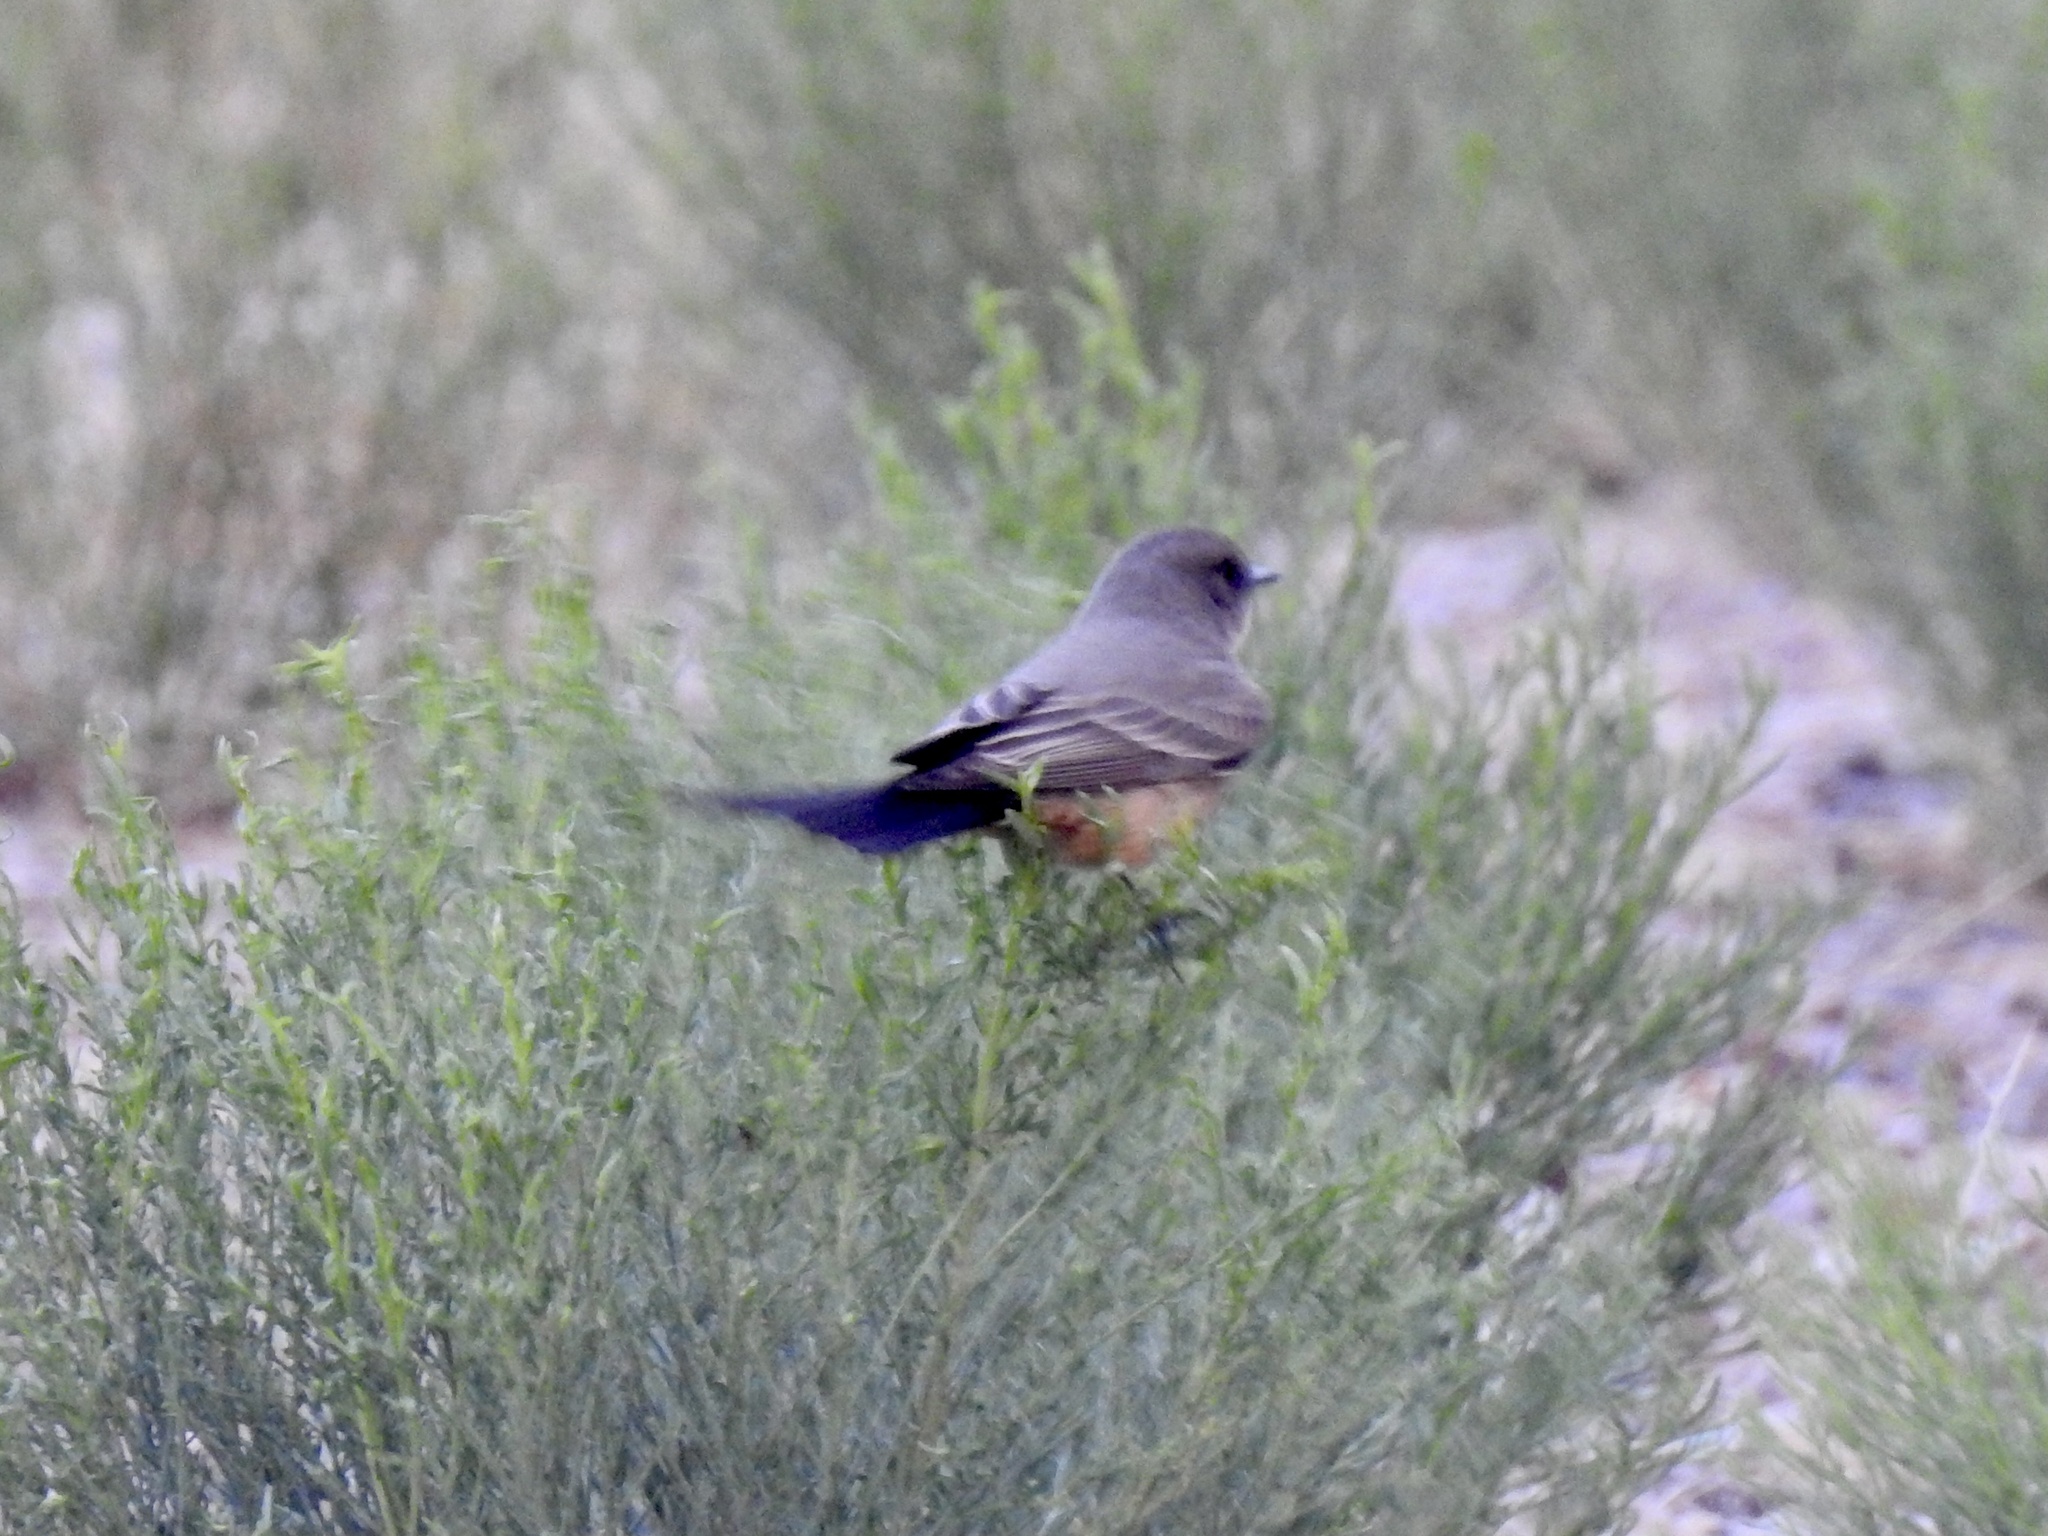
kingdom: Animalia
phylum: Chordata
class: Aves
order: Passeriformes
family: Tyrannidae
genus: Sayornis
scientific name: Sayornis saya
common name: Say's phoebe
